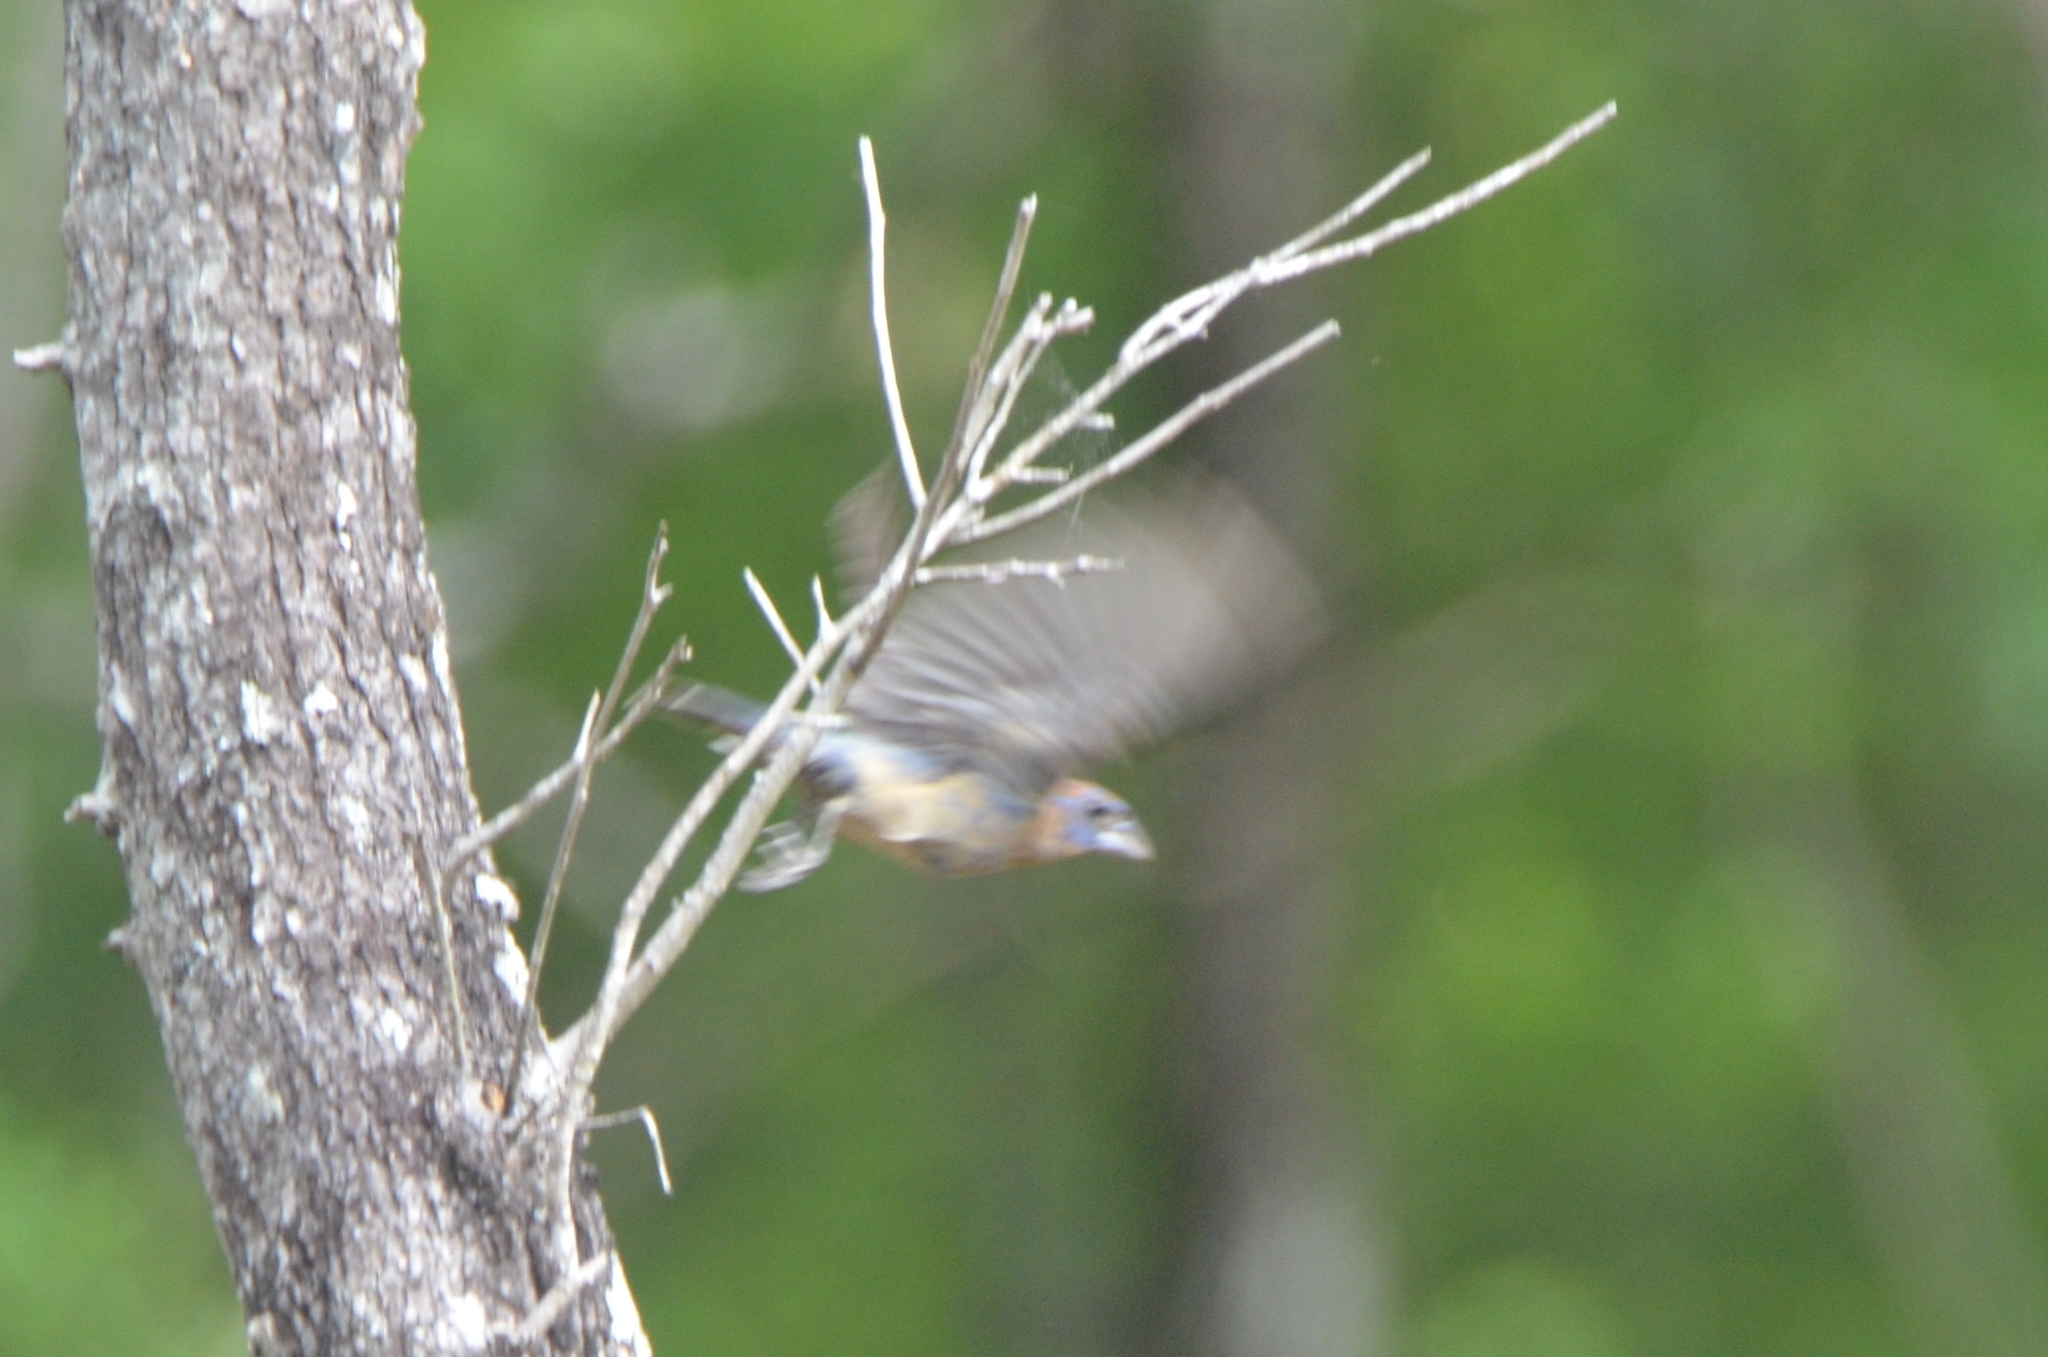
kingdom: Animalia
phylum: Chordata
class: Aves
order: Passeriformes
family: Cardinalidae
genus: Passerina
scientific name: Passerina caerulea
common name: Blue grosbeak
